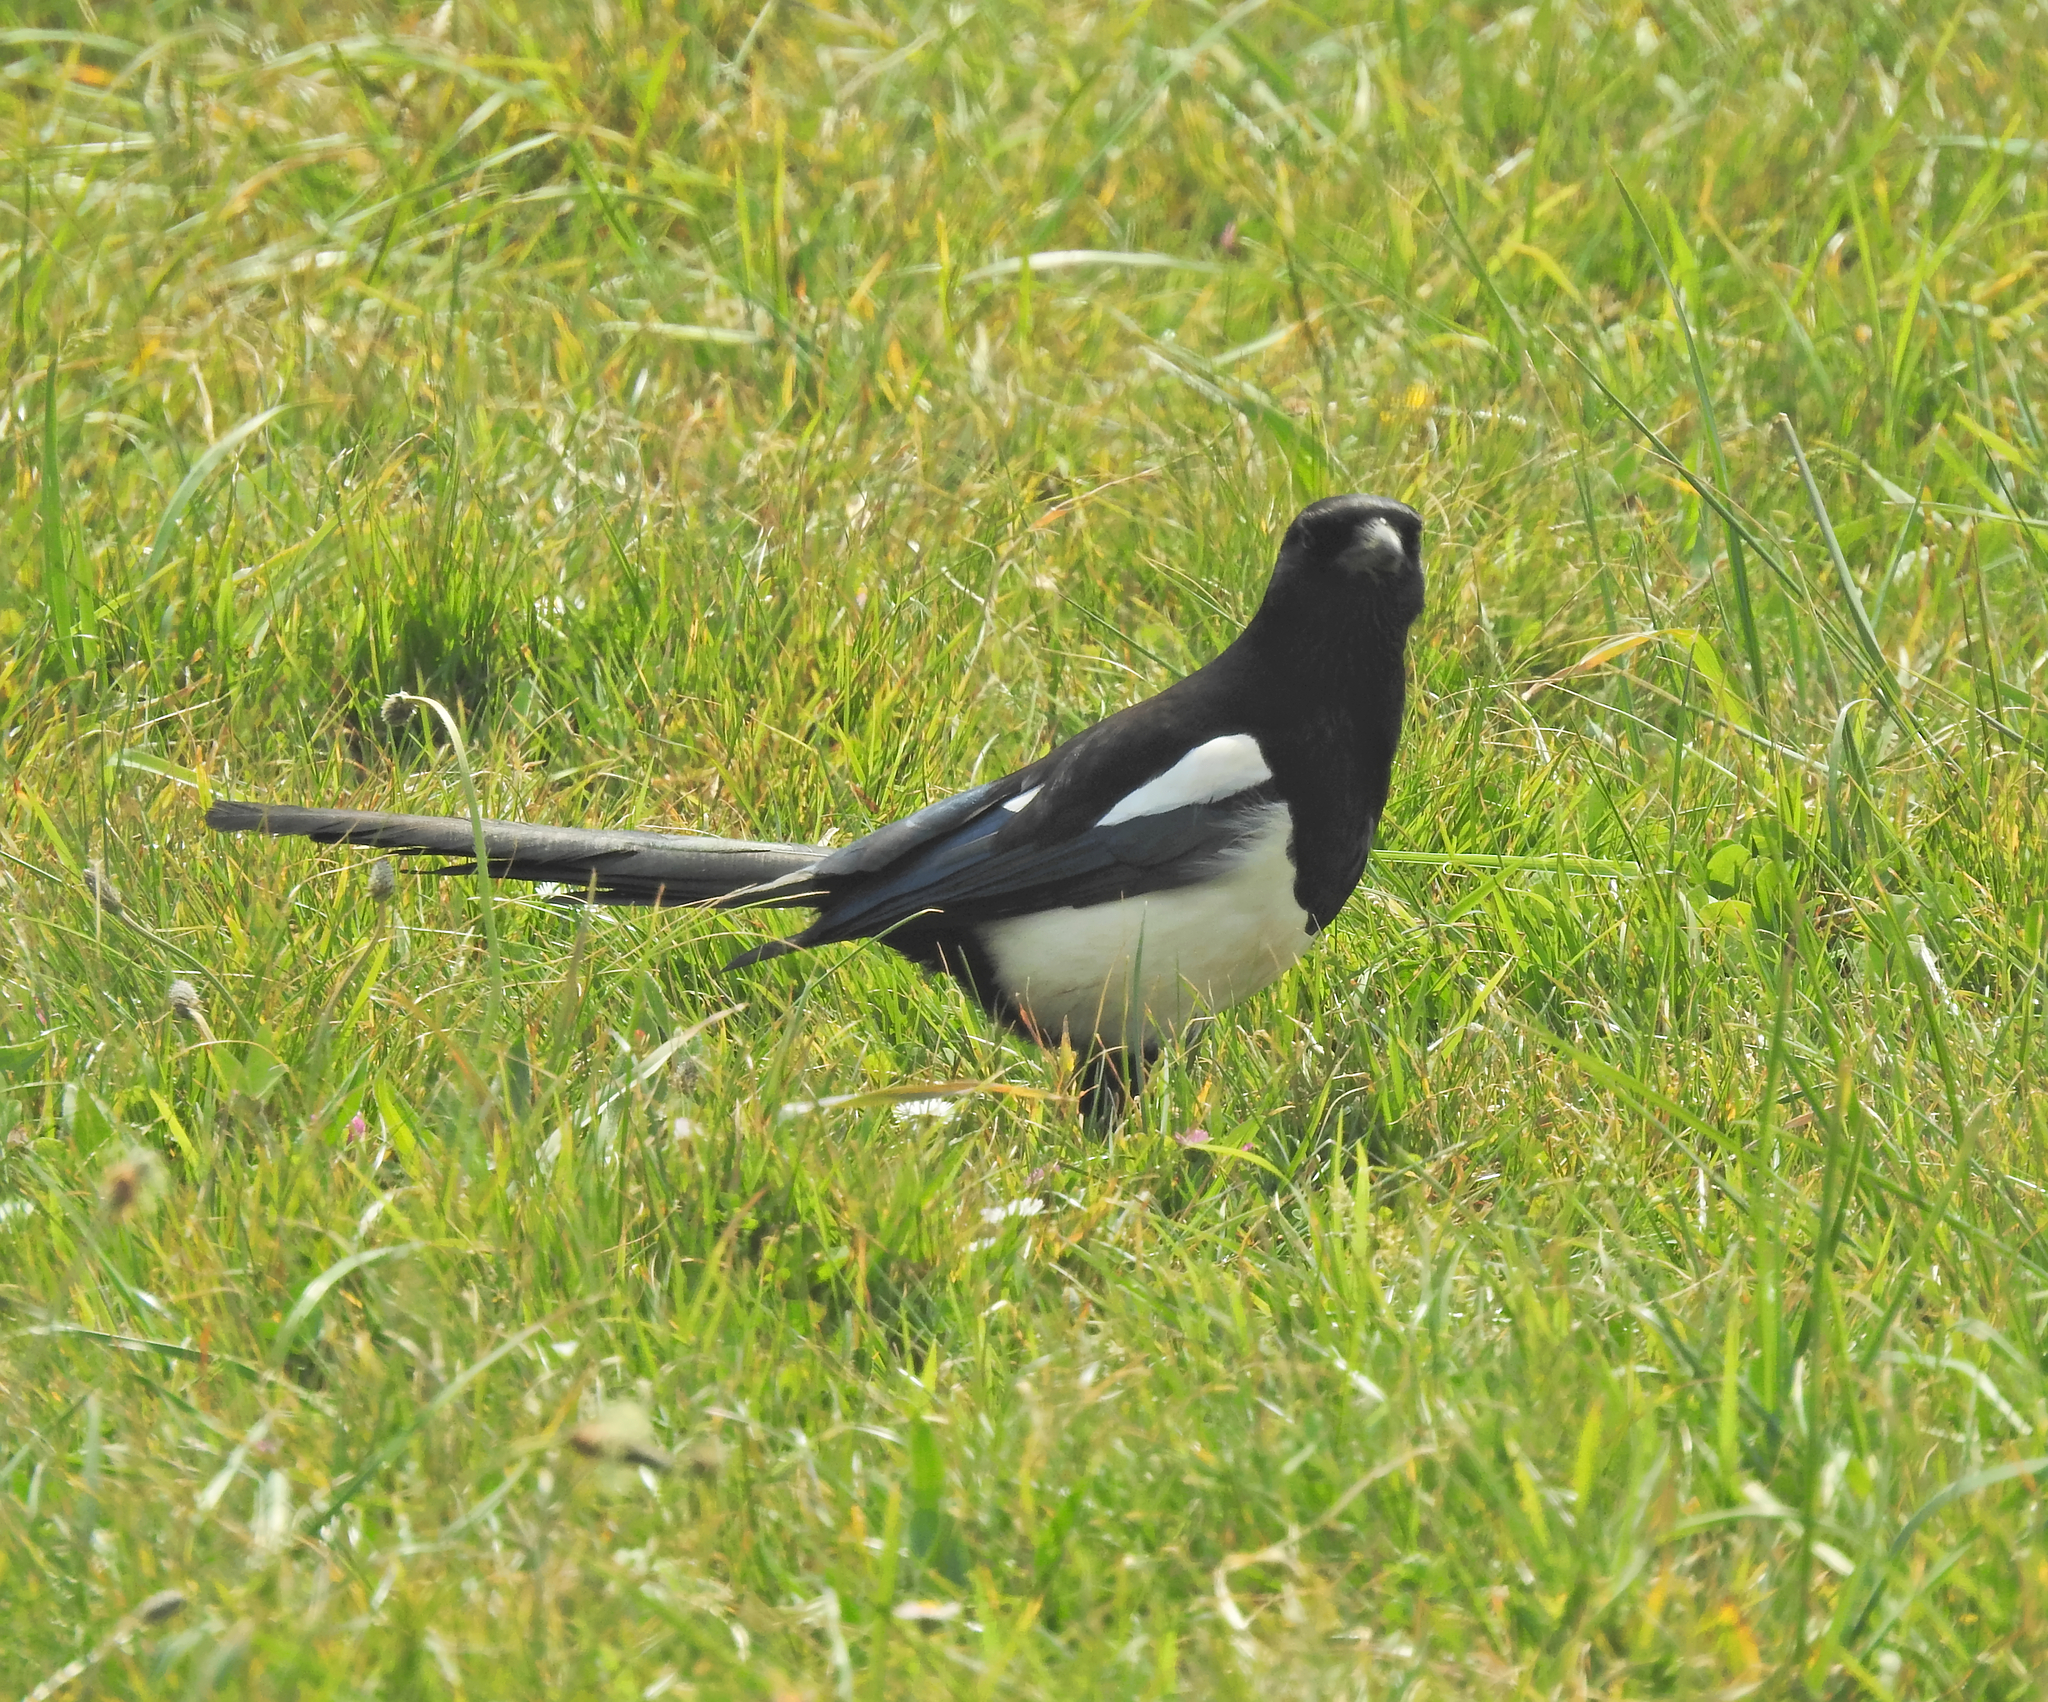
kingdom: Animalia
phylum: Chordata
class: Aves
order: Passeriformes
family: Corvidae
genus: Pica
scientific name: Pica pica
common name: Eurasian magpie
